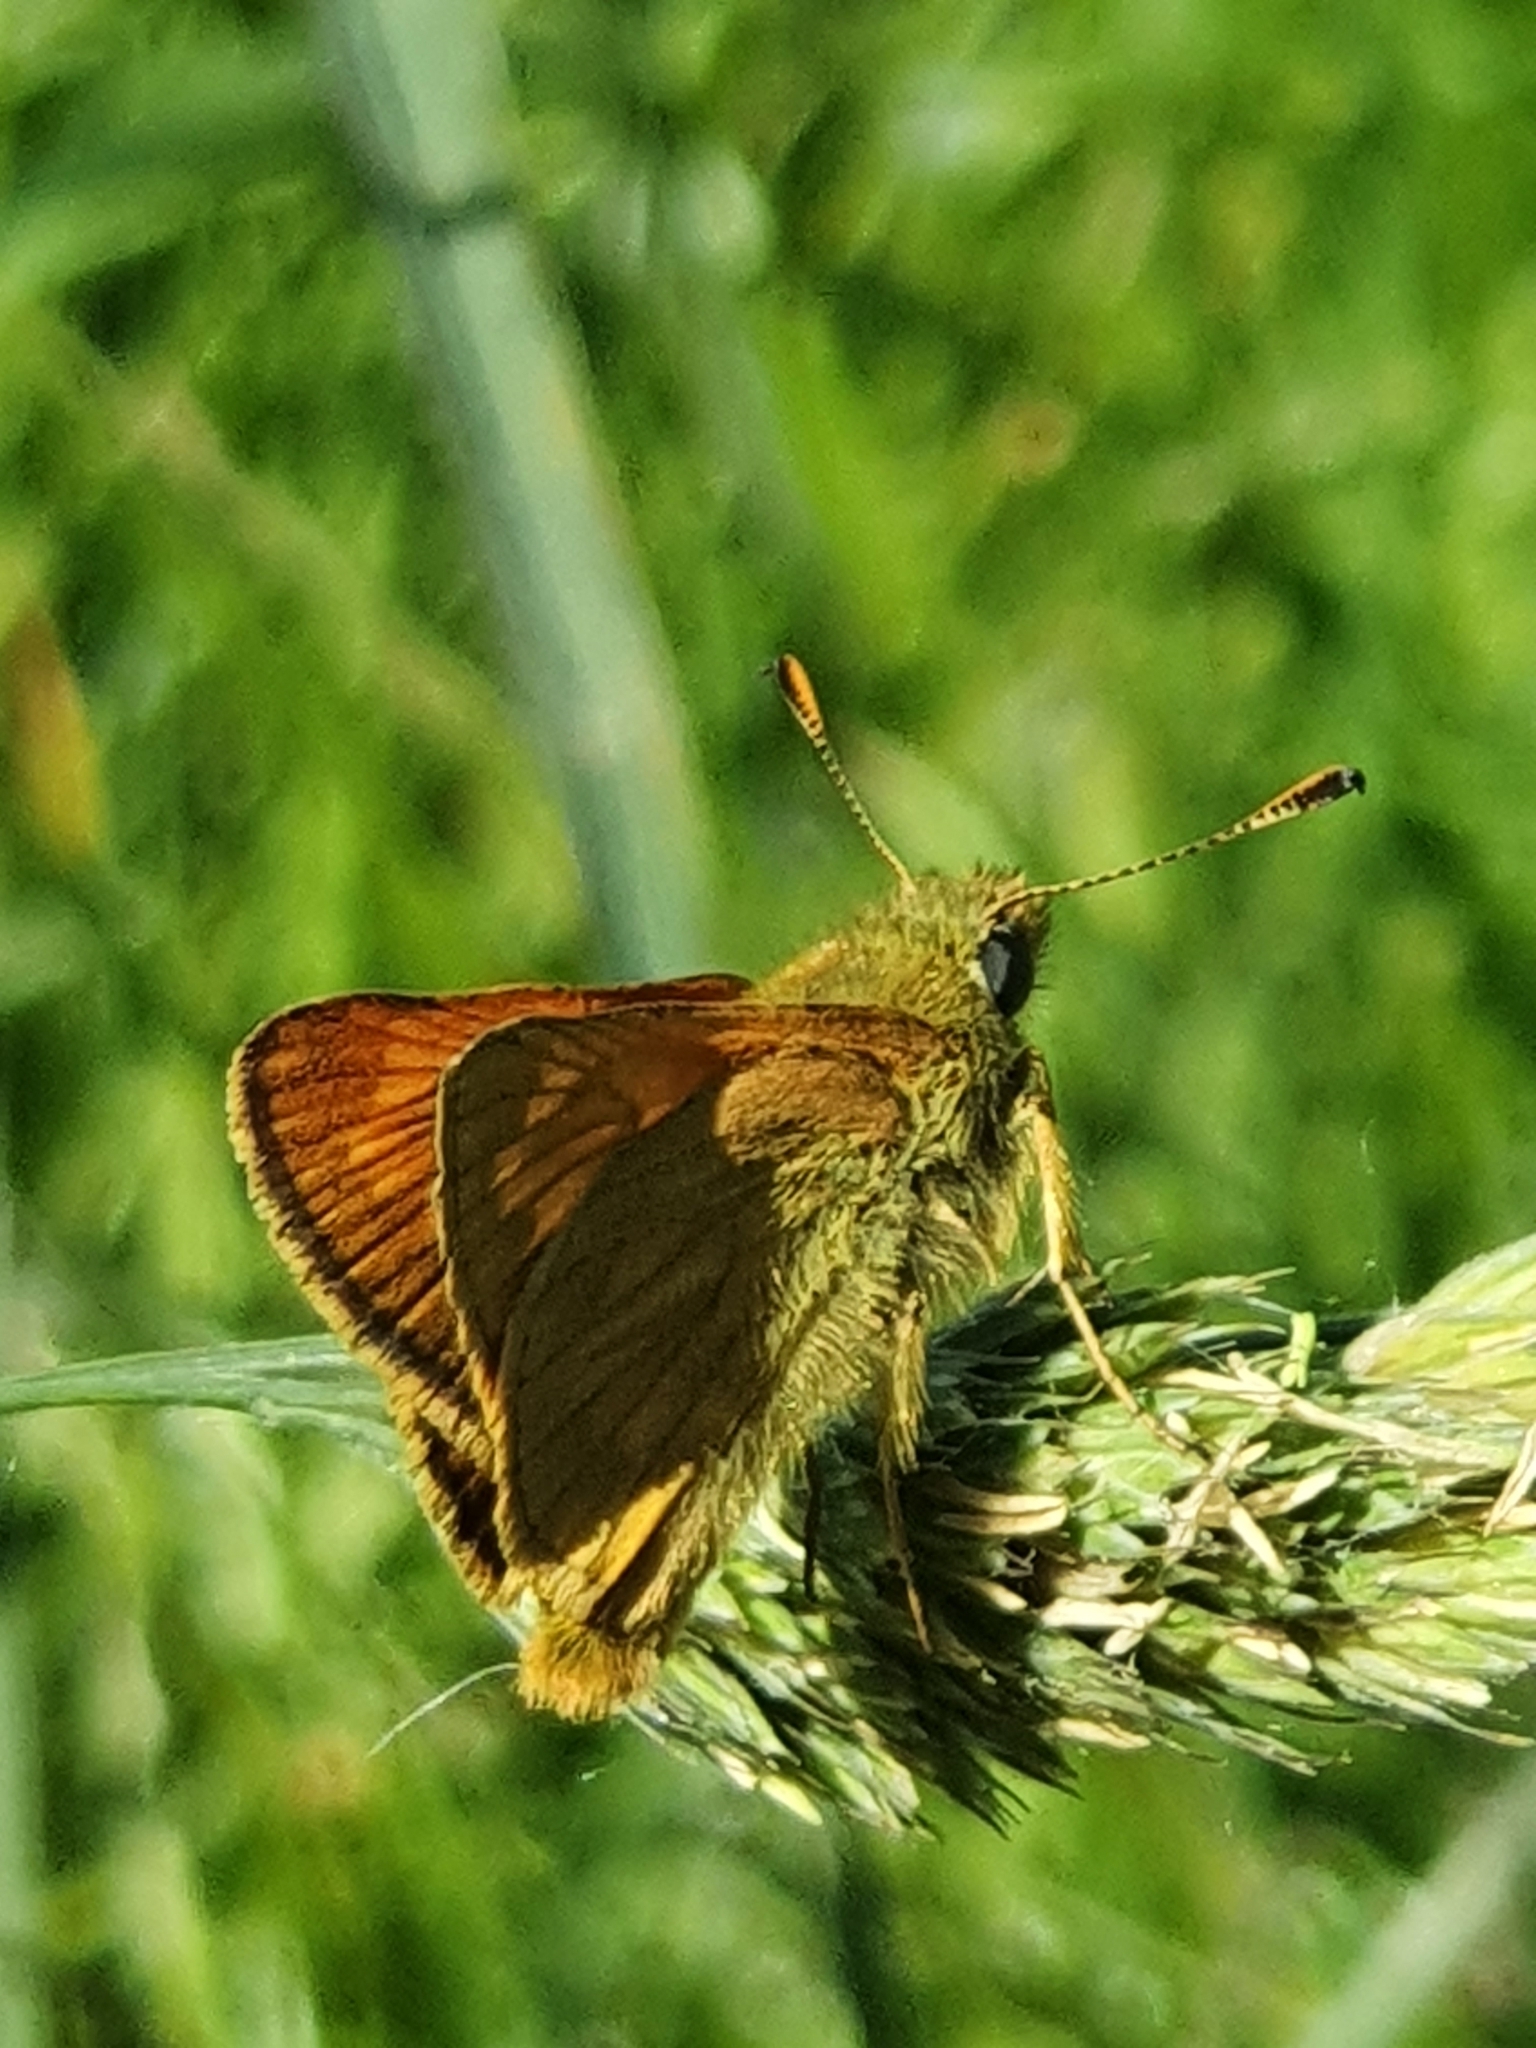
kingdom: Animalia
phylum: Arthropoda
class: Insecta
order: Lepidoptera
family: Hesperiidae
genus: Ochlodes
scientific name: Ochlodes venata
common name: Large skipper
